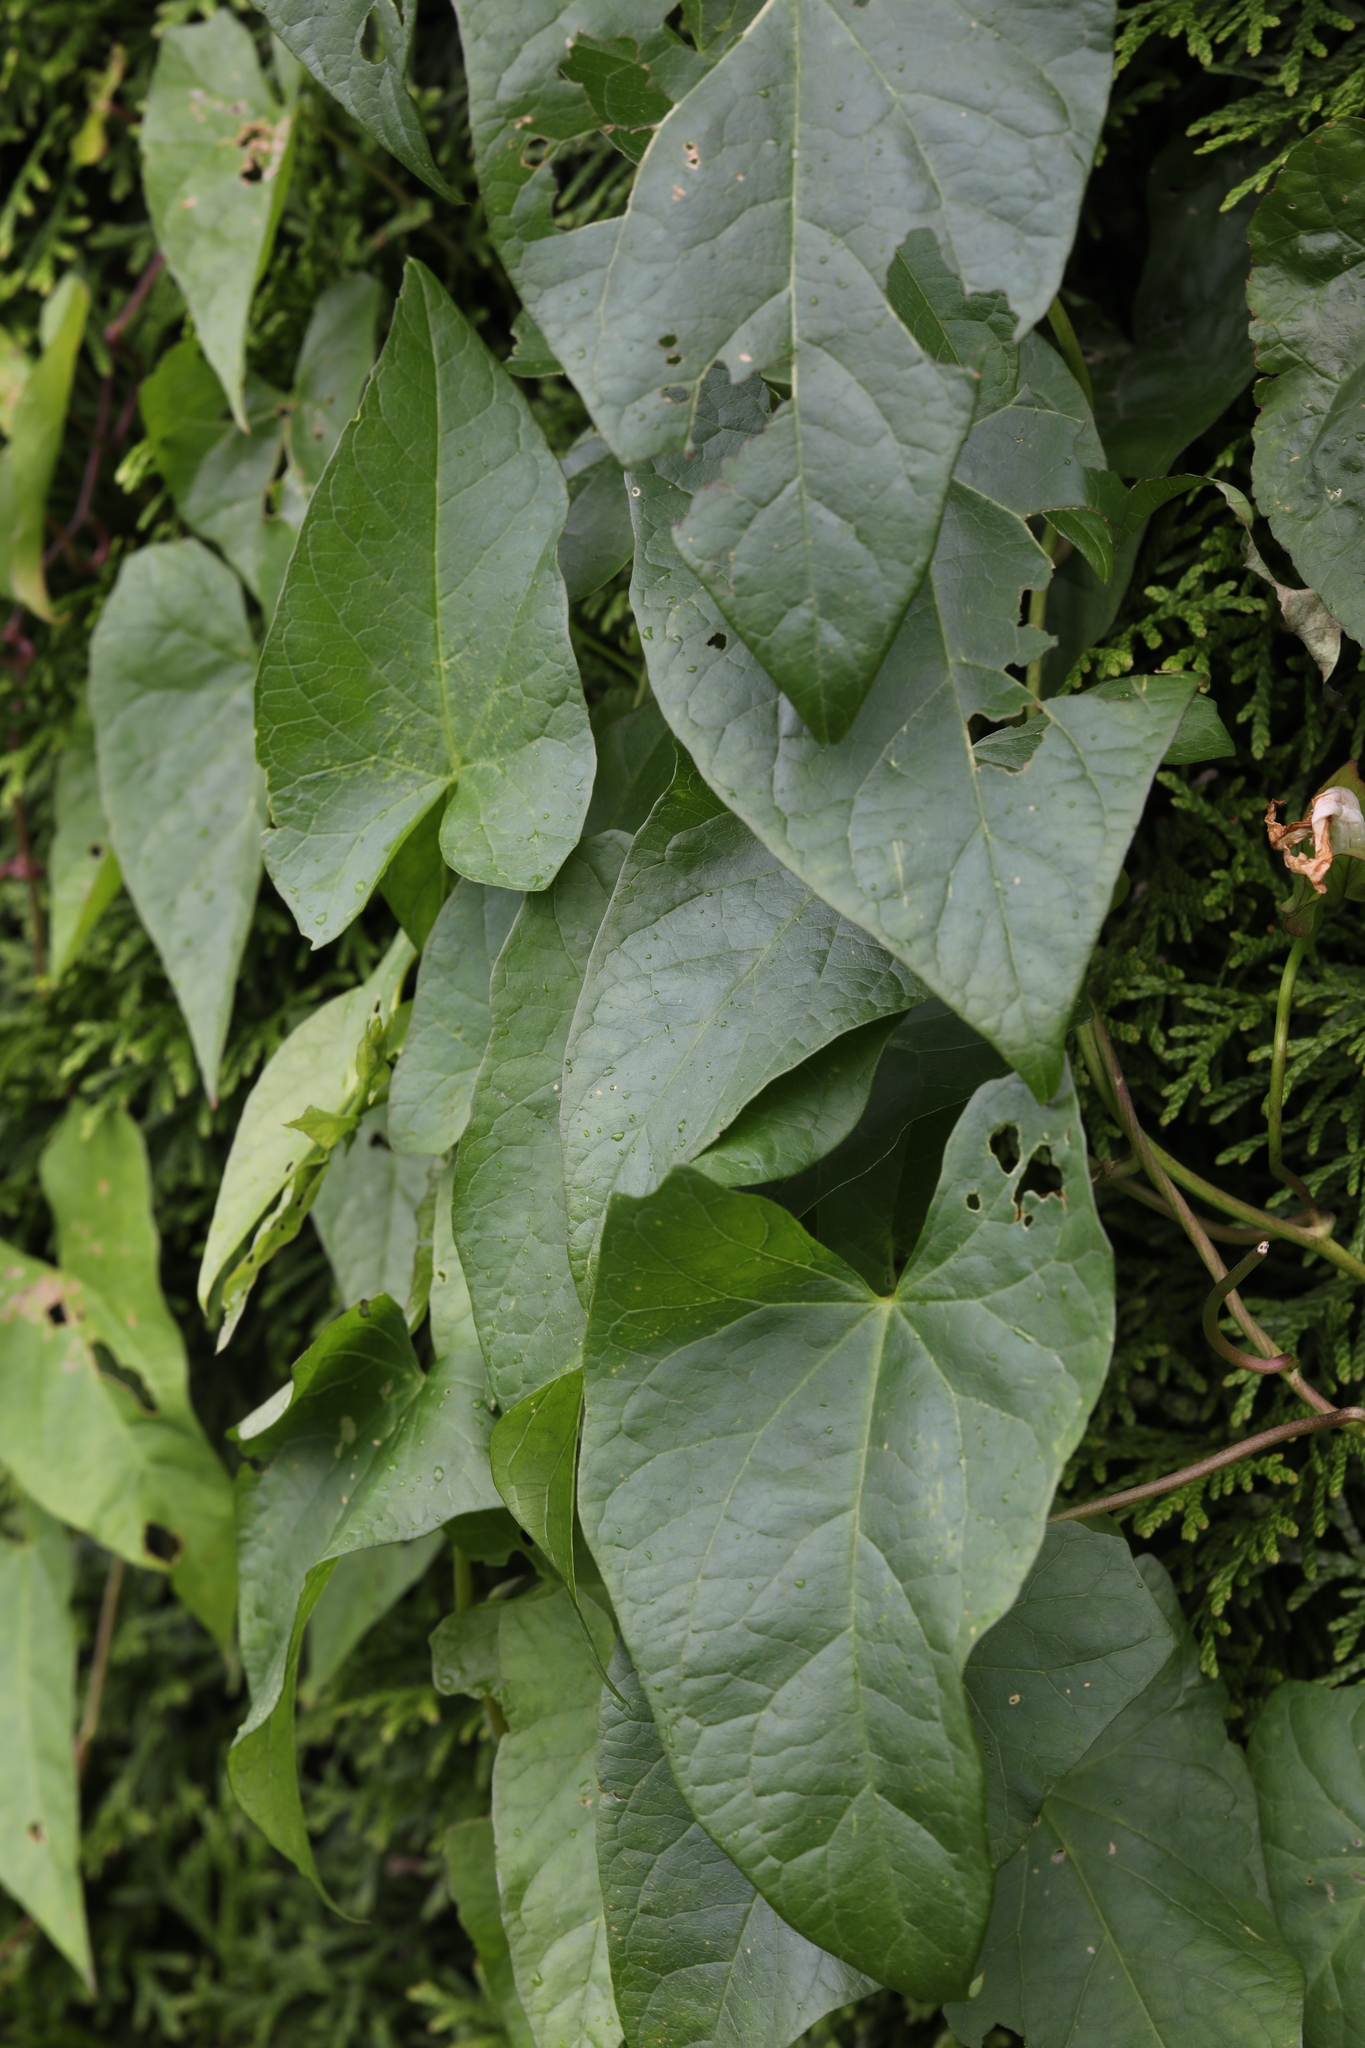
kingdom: Plantae
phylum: Tracheophyta
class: Magnoliopsida
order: Solanales
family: Convolvulaceae
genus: Calystegia
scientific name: Calystegia sepium
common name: Hedge bindweed
